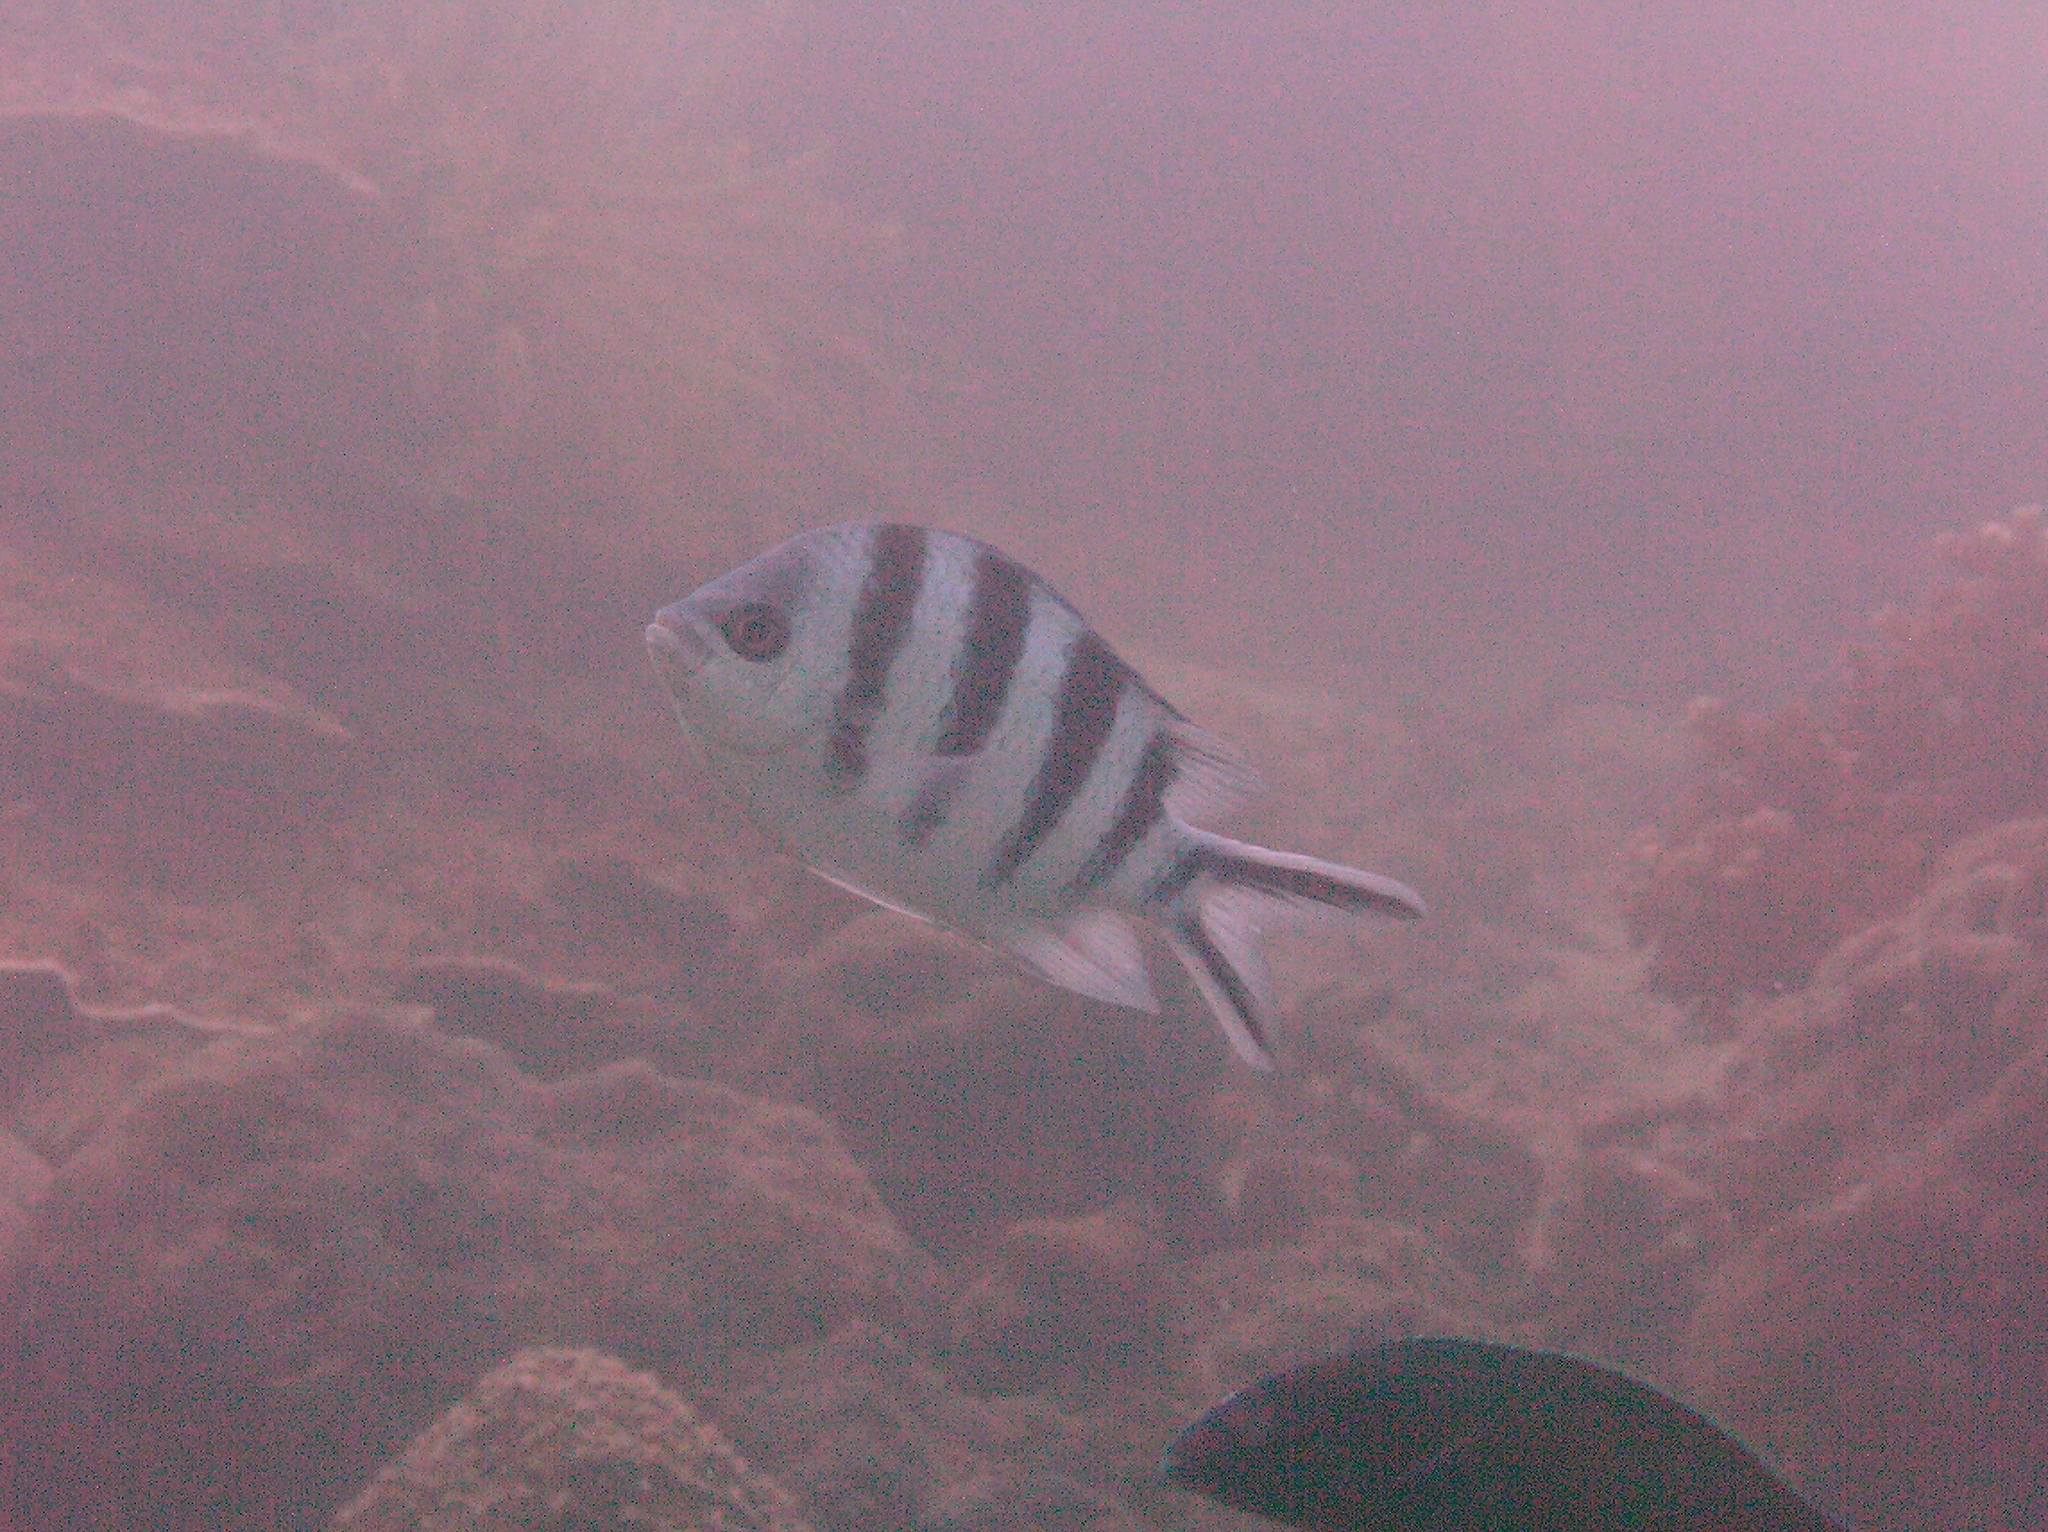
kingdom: Animalia
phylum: Chordata
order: Perciformes
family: Pomacentridae
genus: Abudefduf
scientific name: Abudefduf sexfasciatus
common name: Scissortail sergeant
